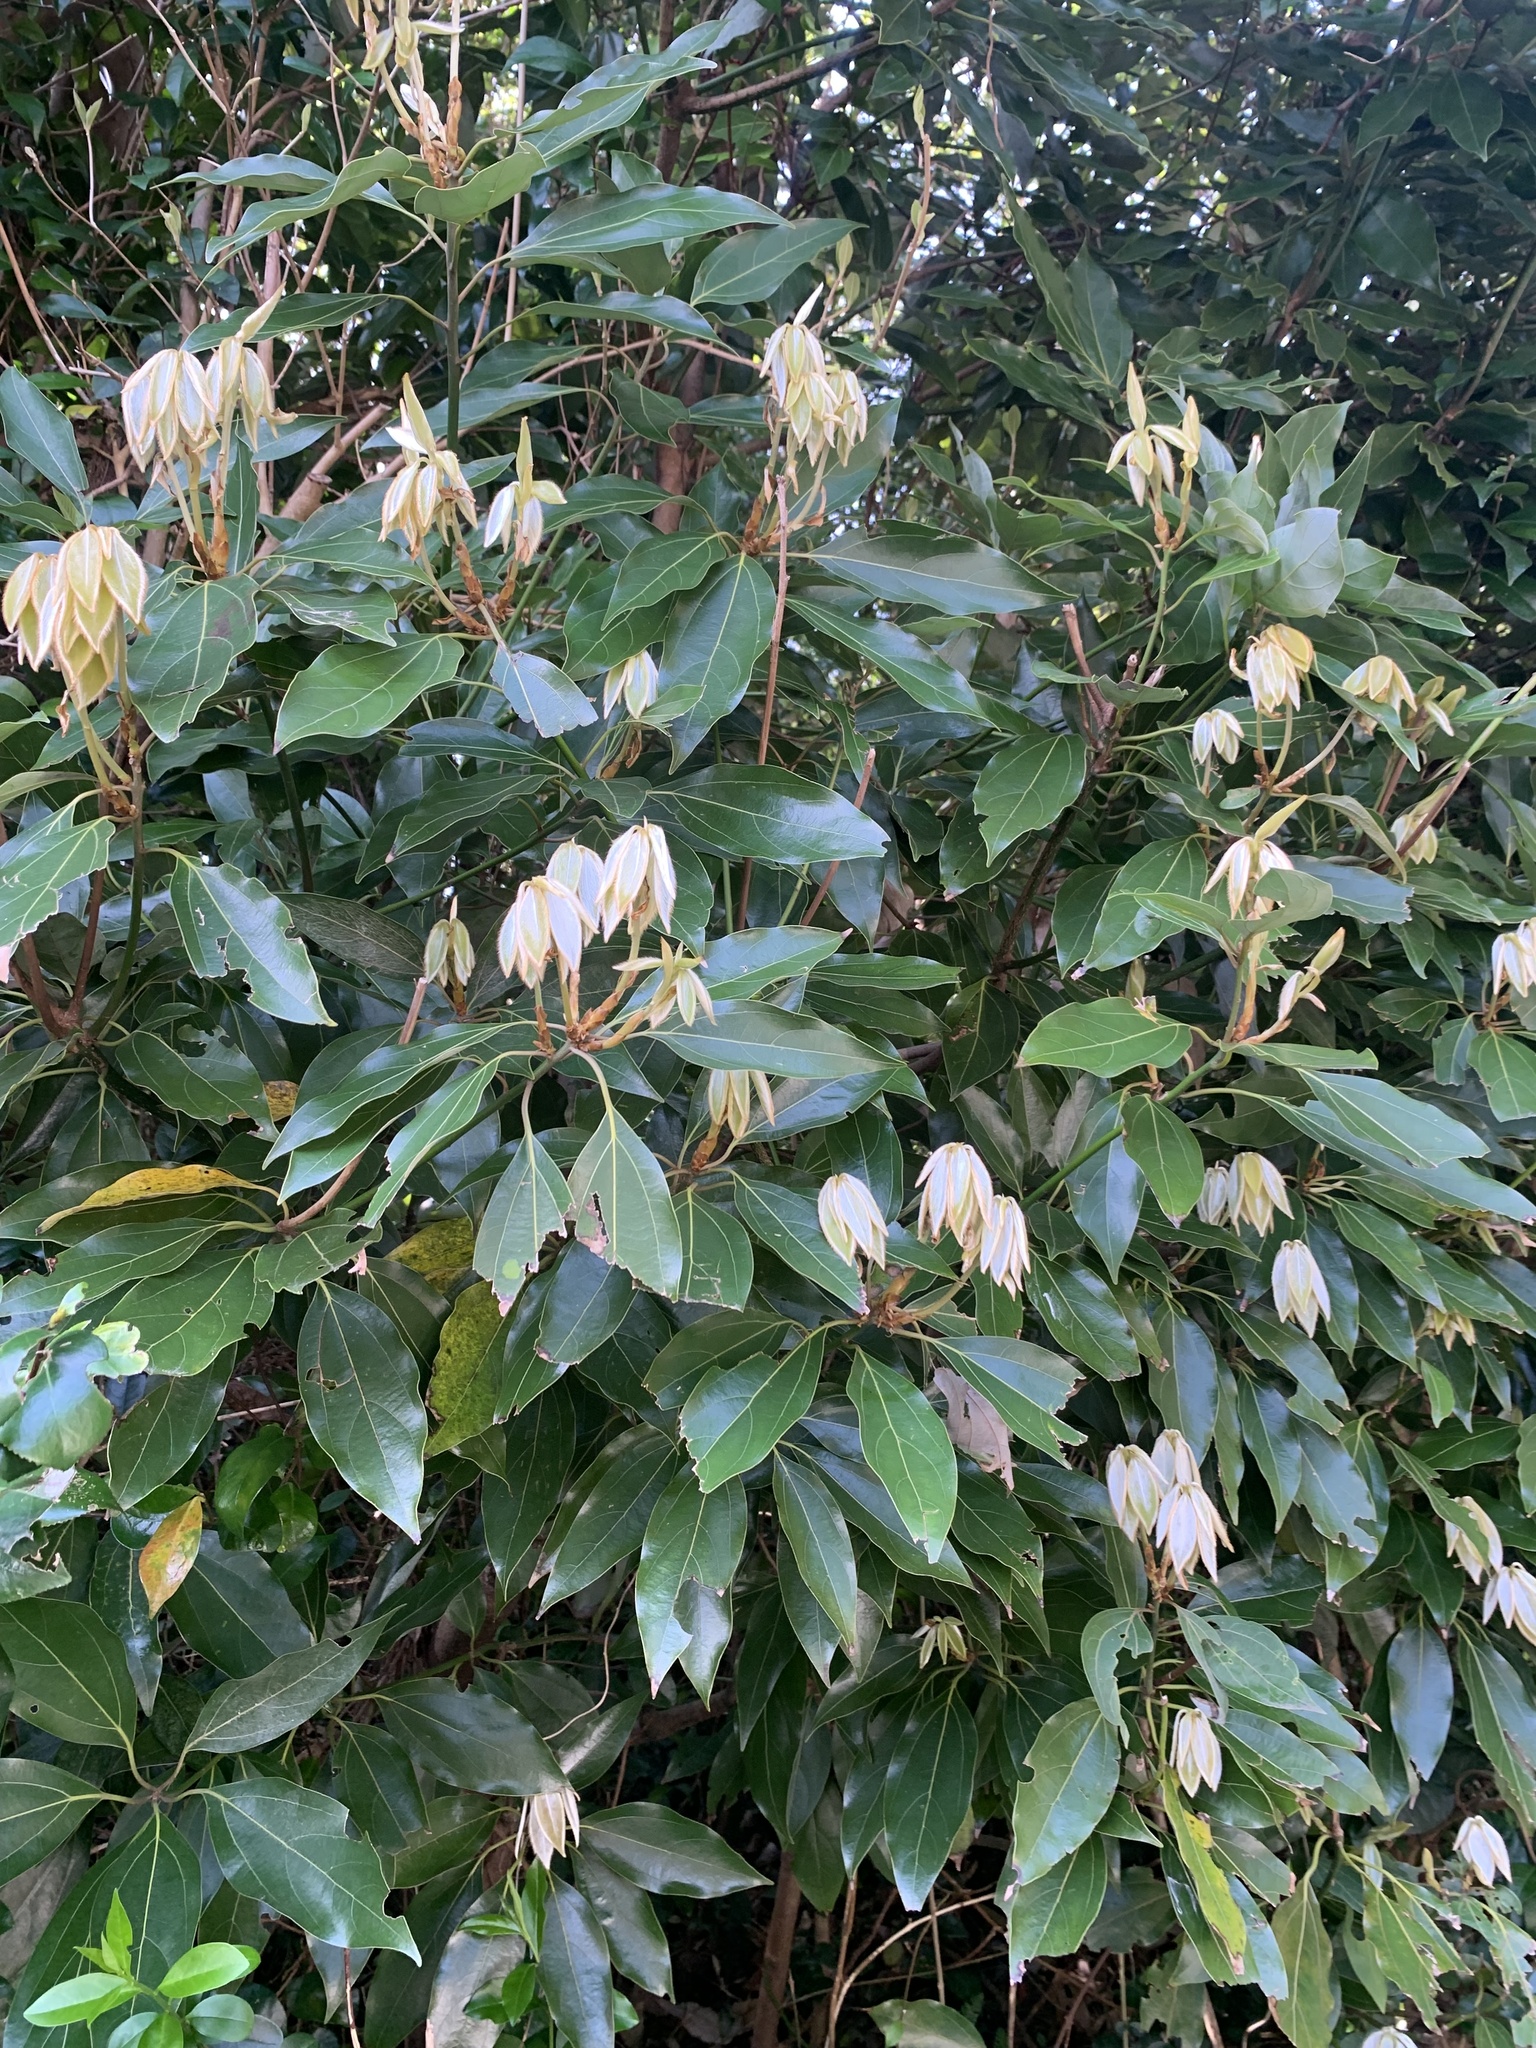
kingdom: Plantae
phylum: Tracheophyta
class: Magnoliopsida
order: Laurales
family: Lauraceae
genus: Neolitsea
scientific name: Neolitsea sericea
